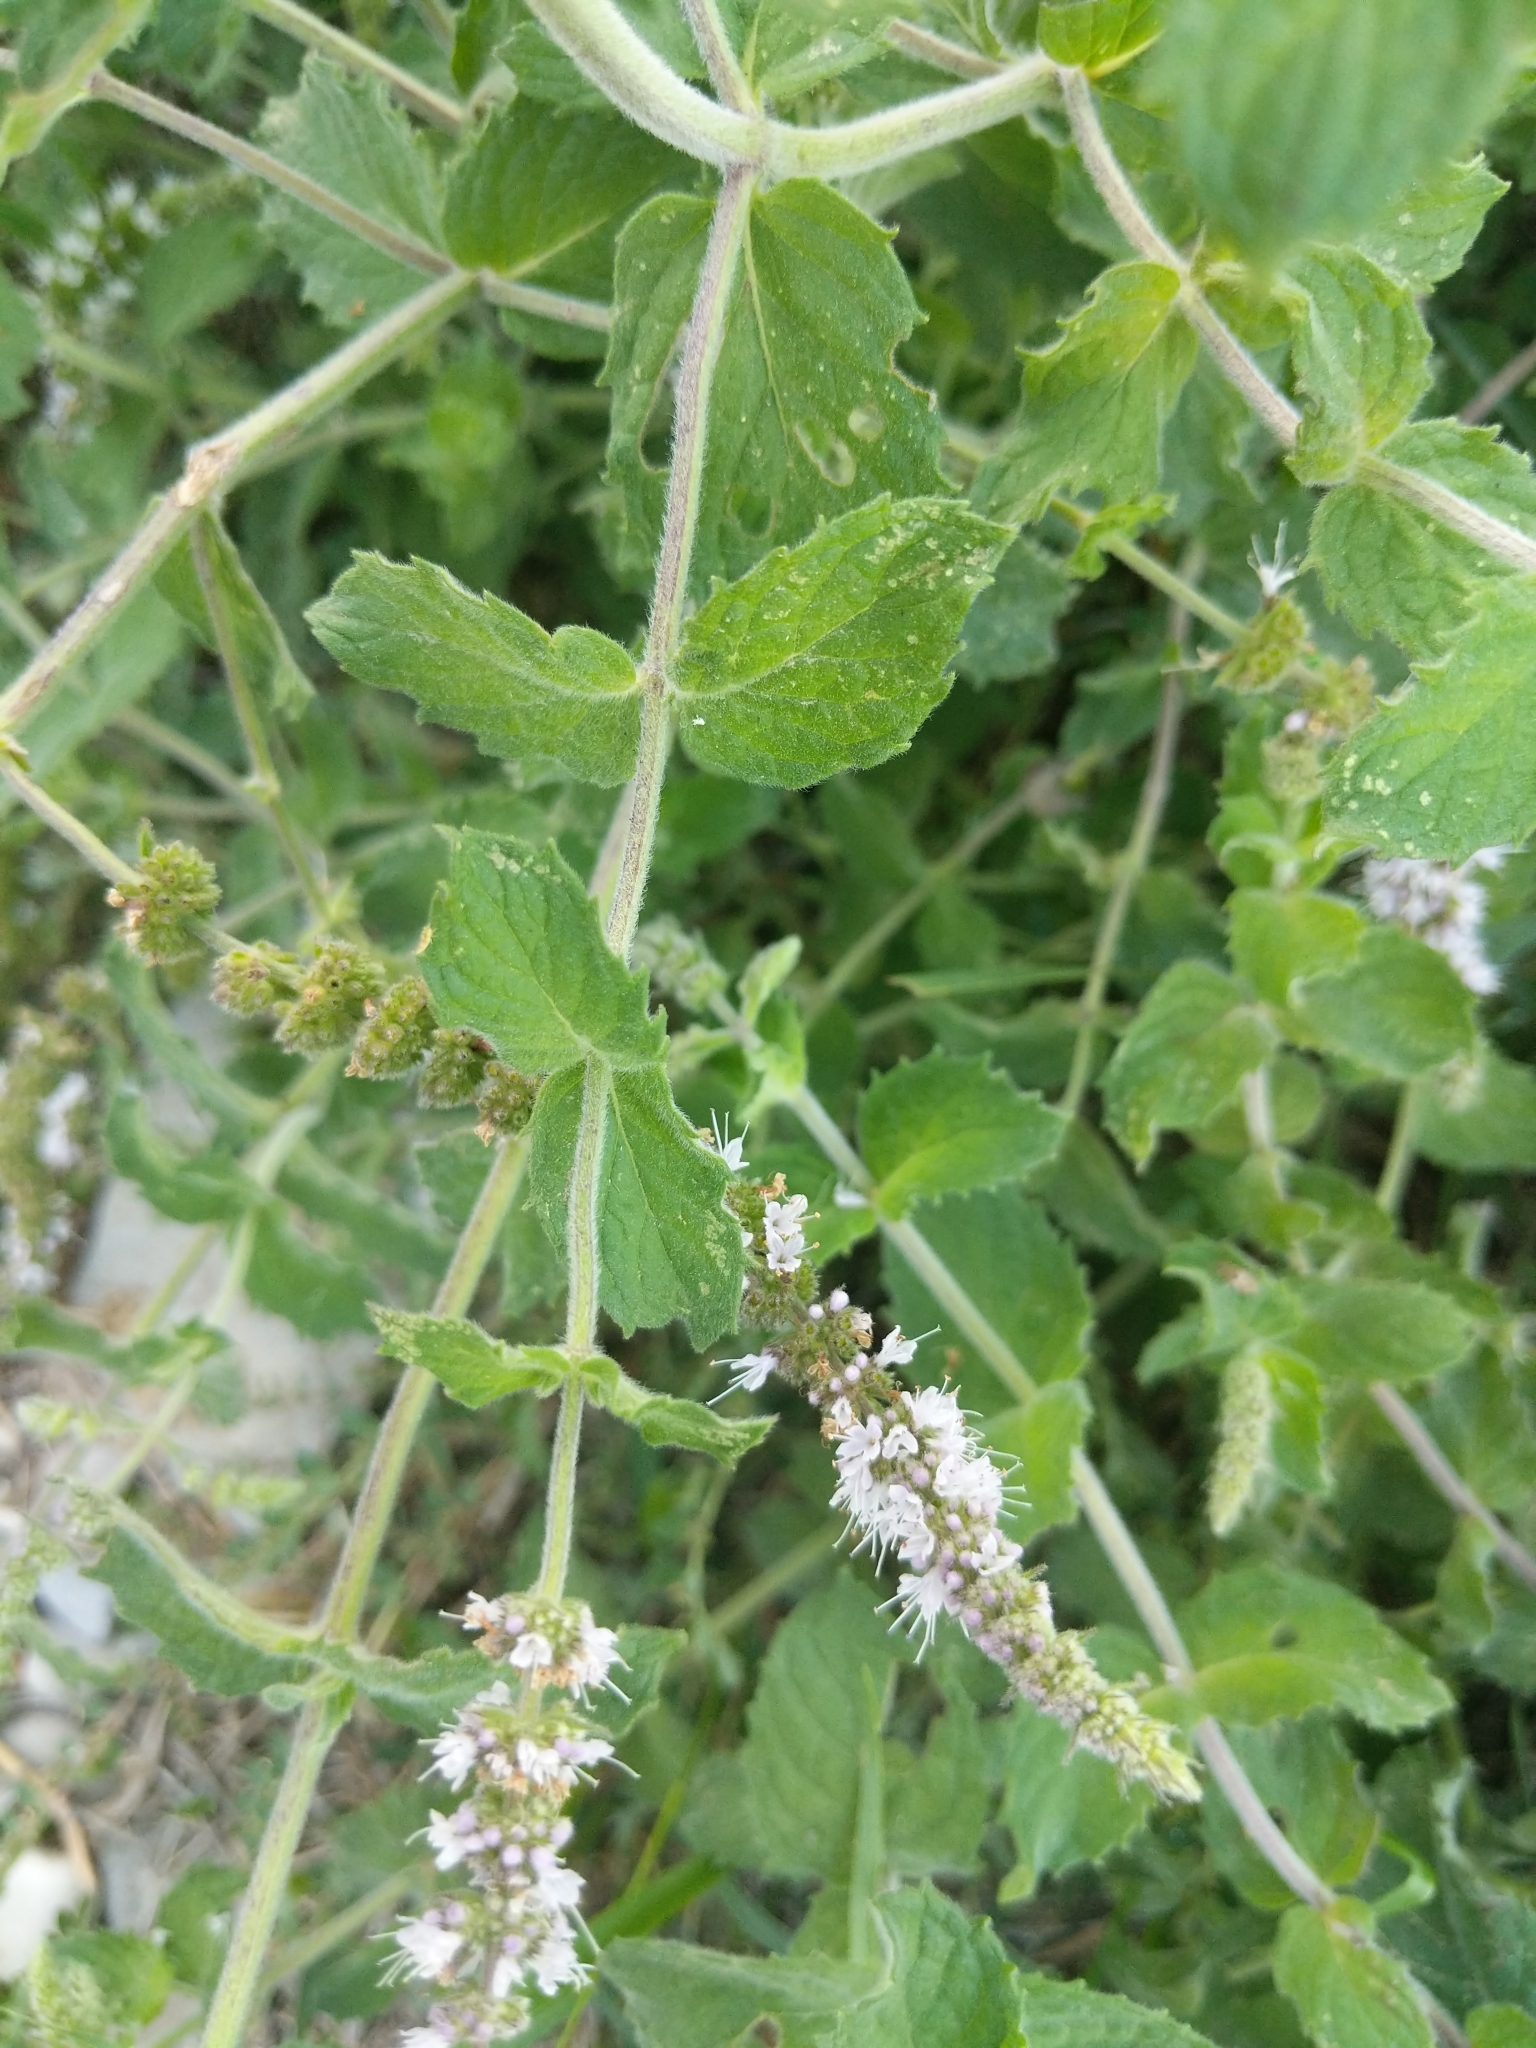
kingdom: Plantae
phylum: Tracheophyta
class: Magnoliopsida
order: Lamiales
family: Lamiaceae
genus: Mentha
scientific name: Mentha spicata
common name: Spearmint
